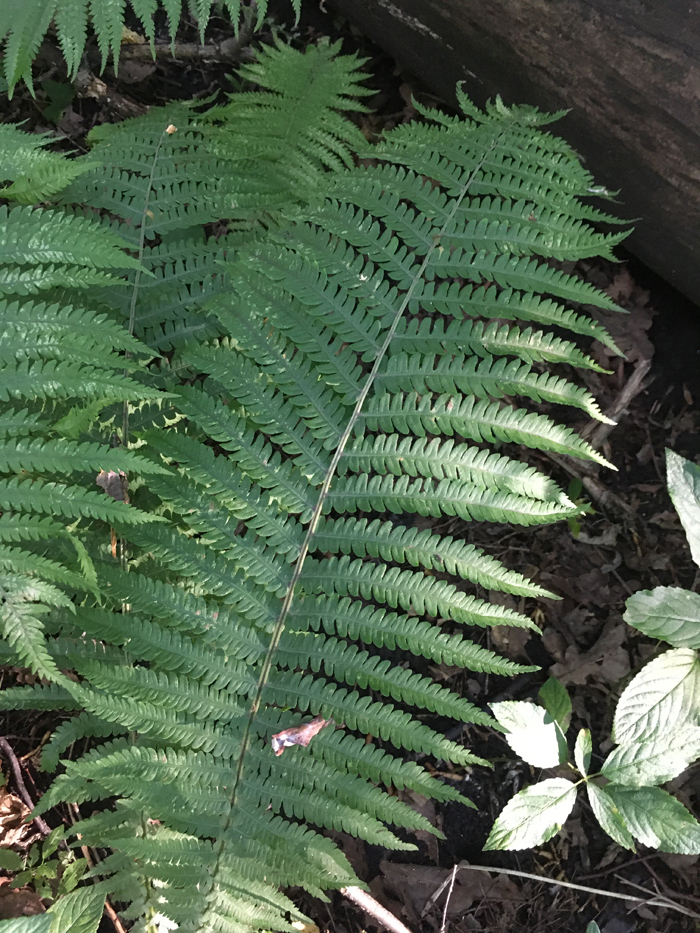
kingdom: Plantae
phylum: Tracheophyta
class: Polypodiopsida
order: Polypodiales
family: Onocleaceae
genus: Matteuccia
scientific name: Matteuccia struthiopteris
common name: Ostrich fern
